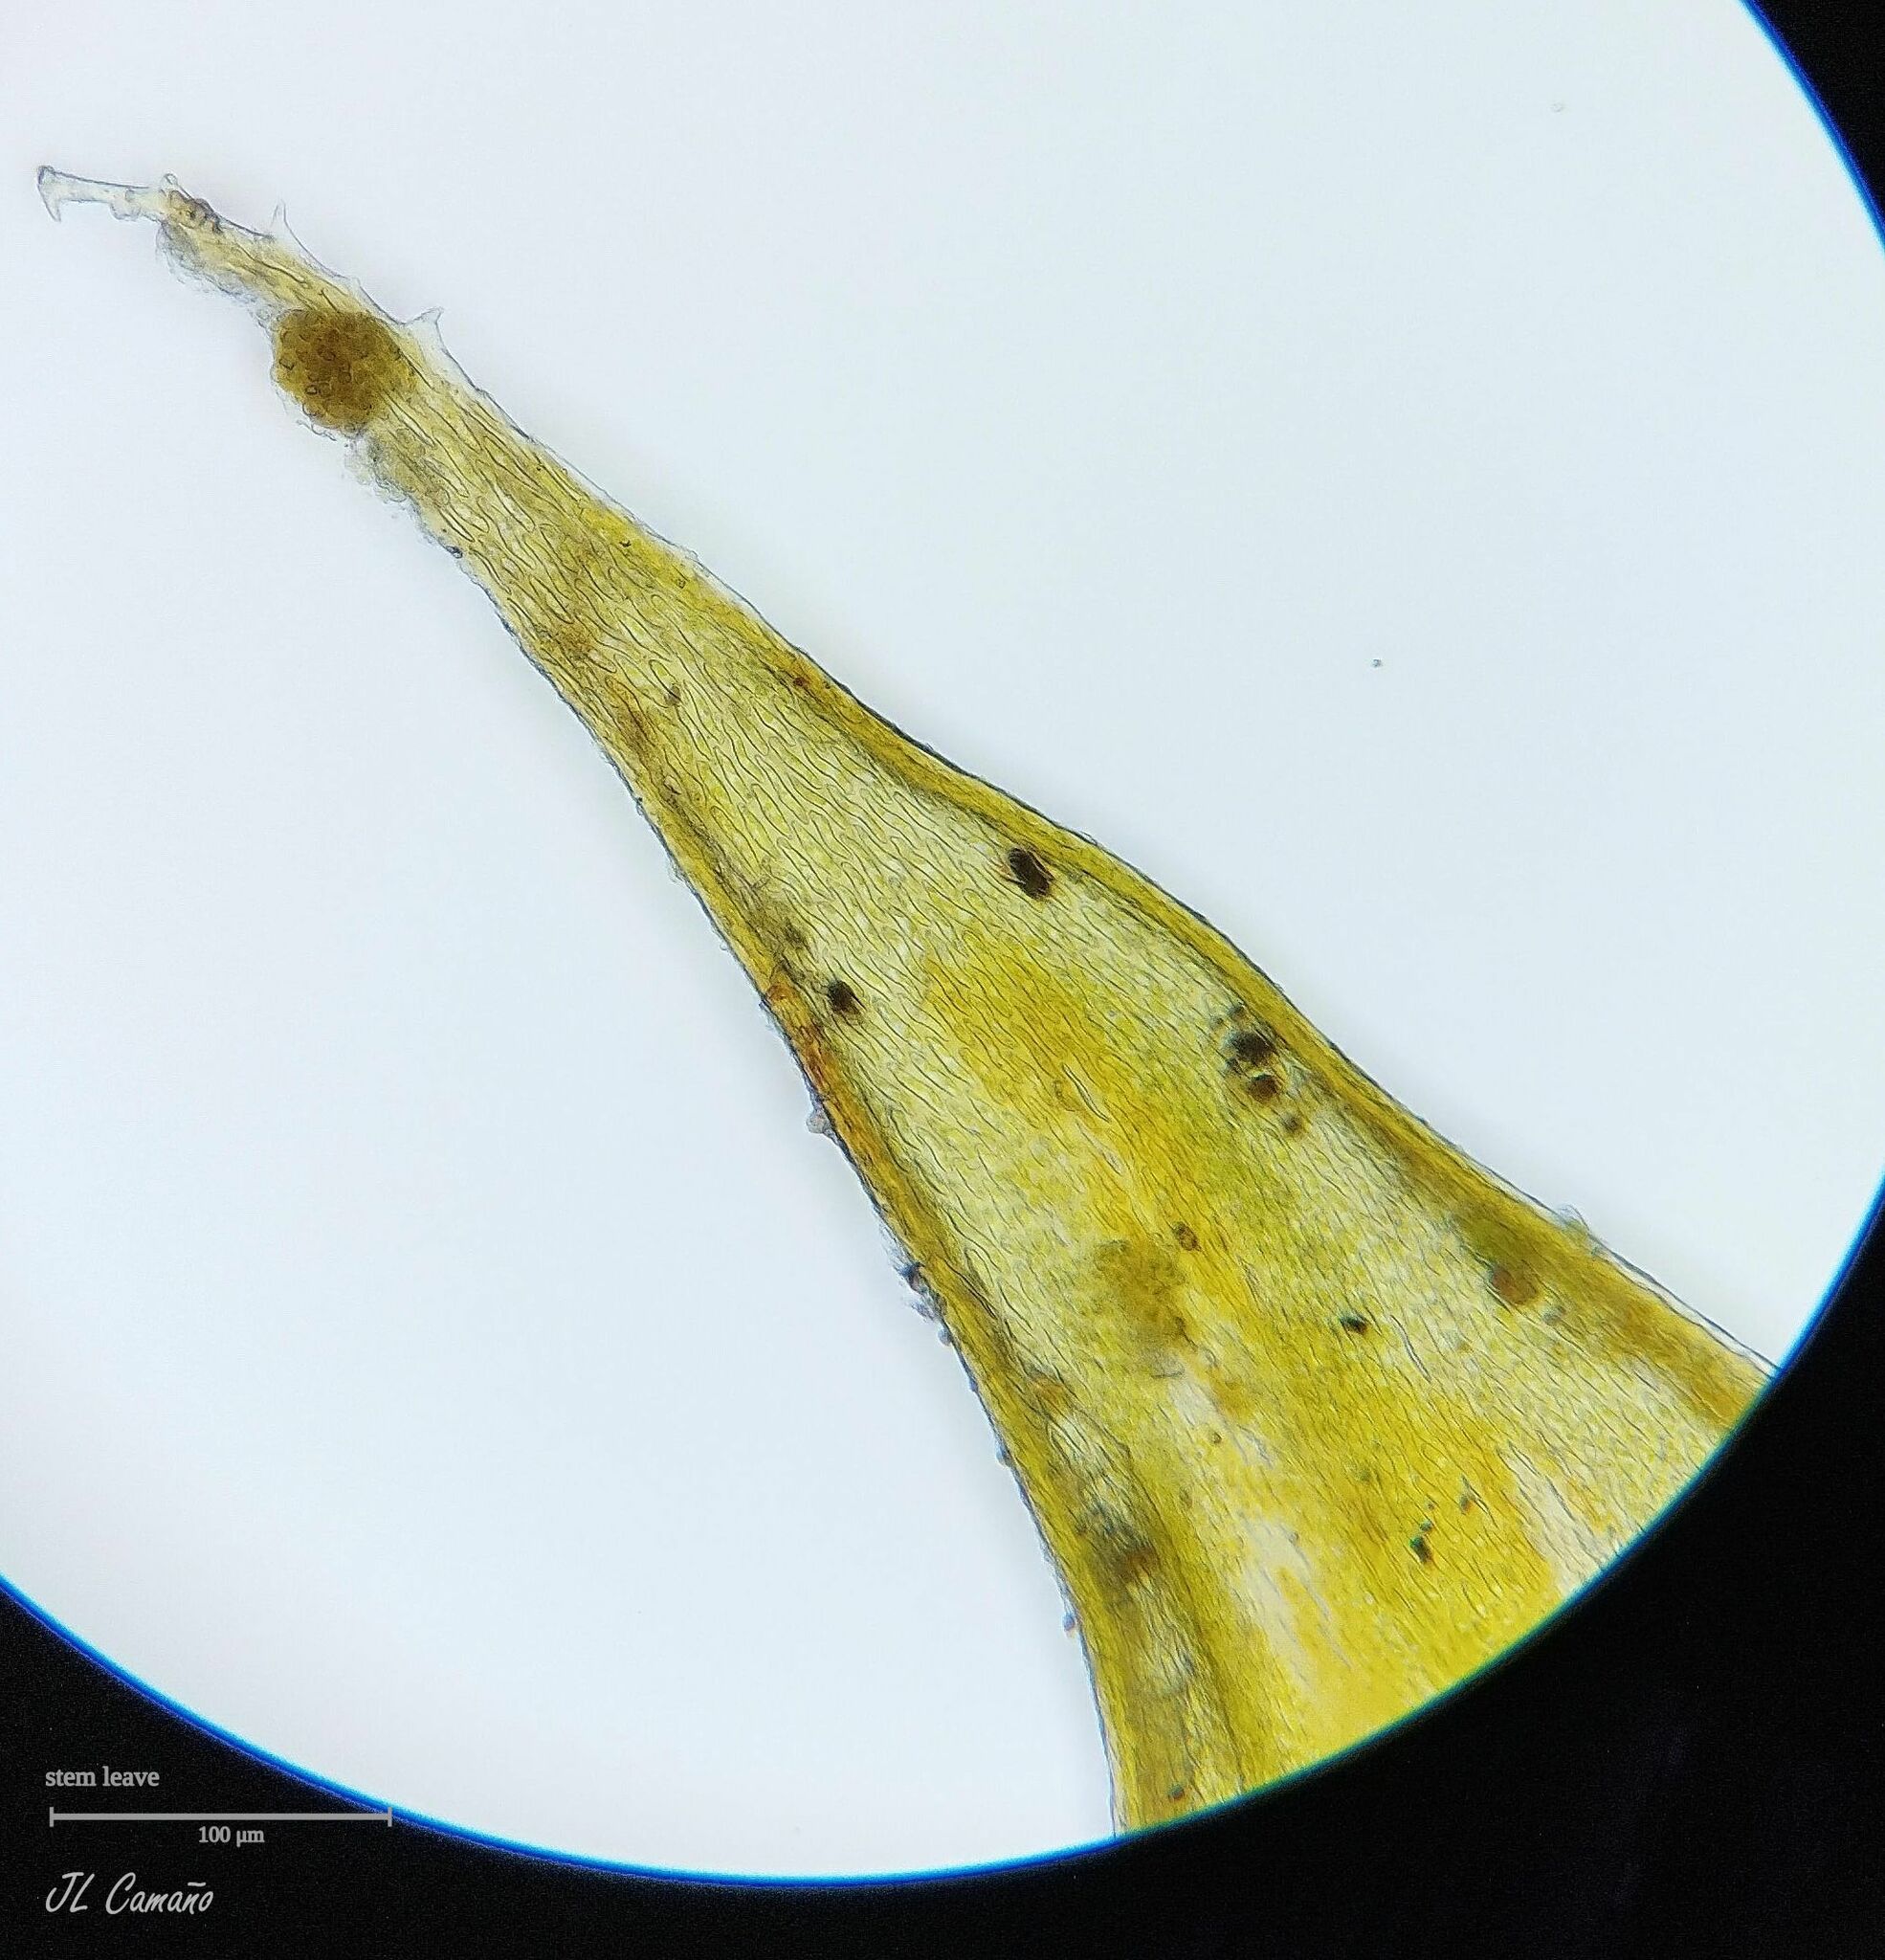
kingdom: Plantae
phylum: Bryophyta
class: Bryopsida
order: Hypnales
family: Antitrichiaceae
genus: Antitrichia
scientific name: Antitrichia curtipendula
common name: Pendulous wing-moss
